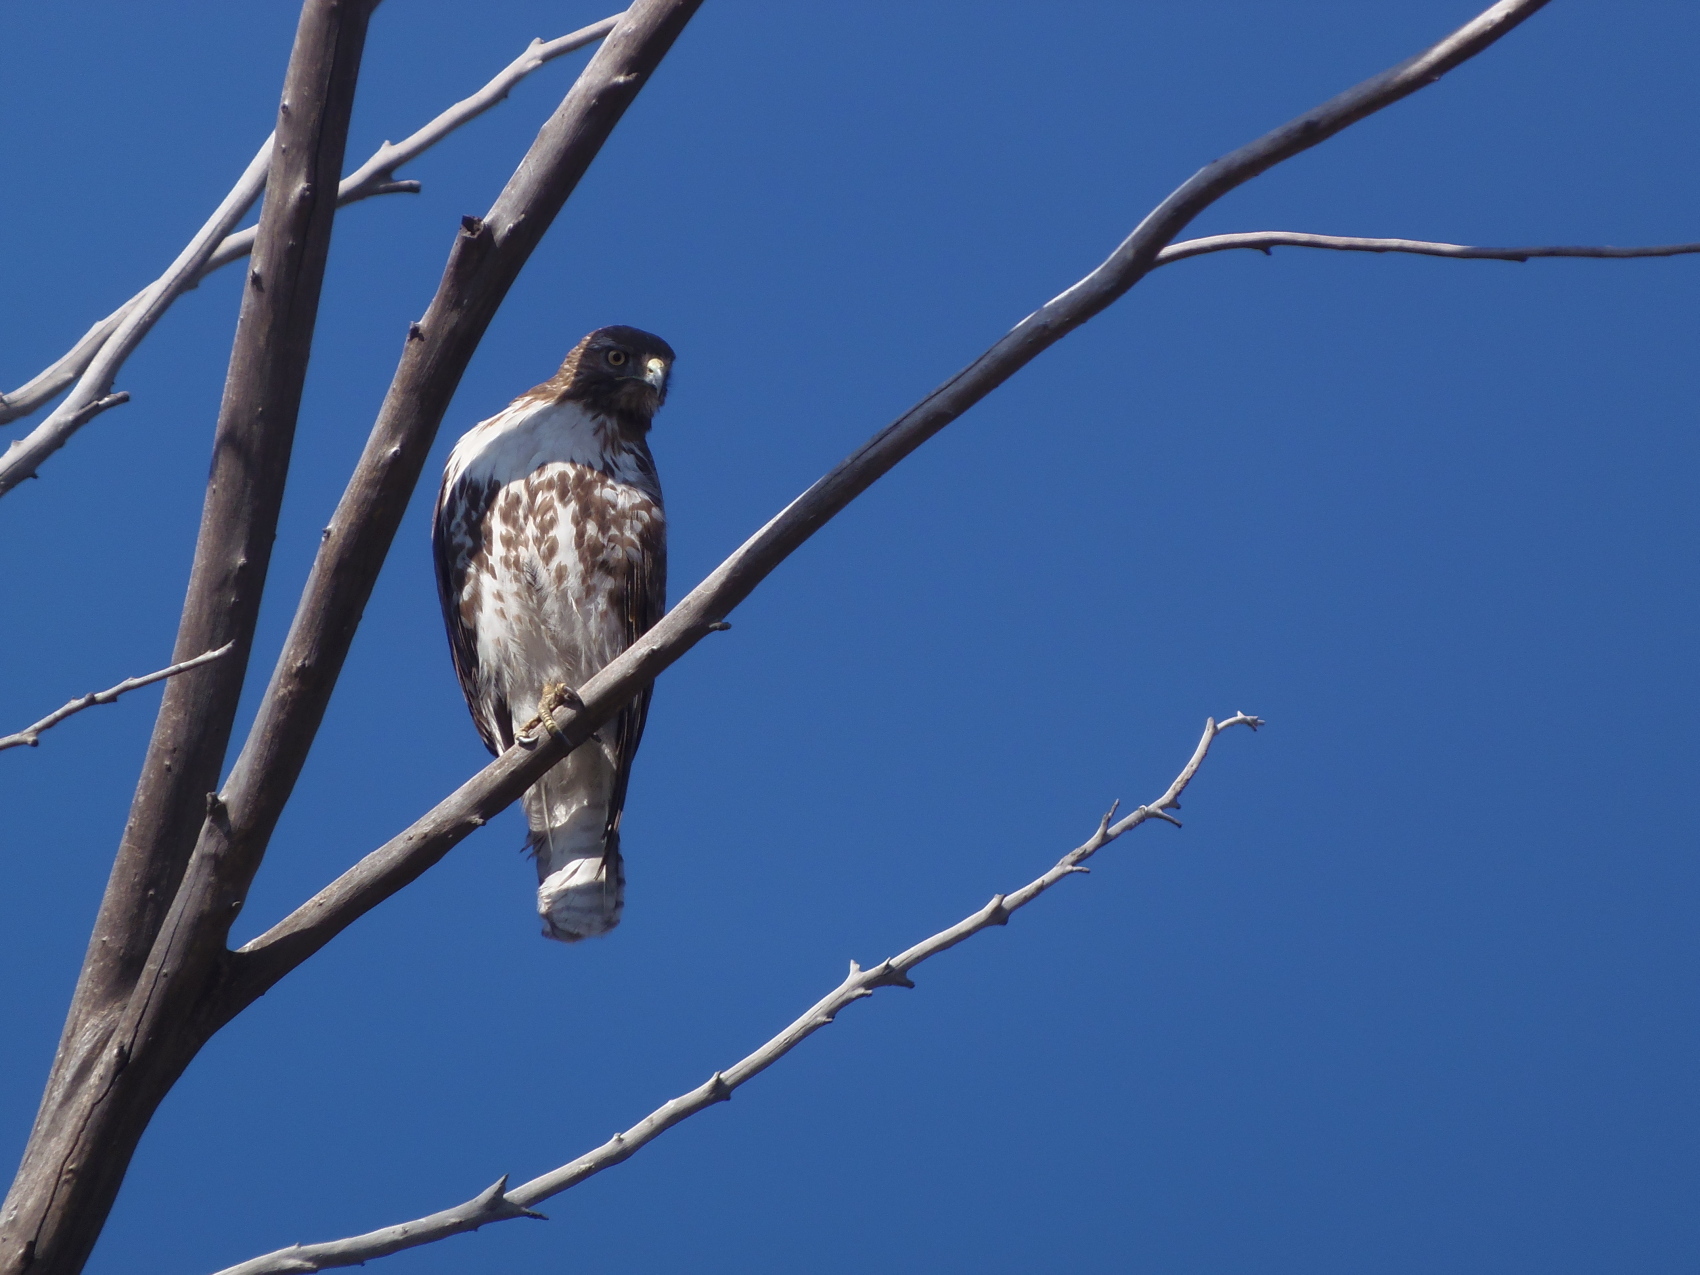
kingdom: Animalia
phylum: Chordata
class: Aves
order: Accipitriformes
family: Accipitridae
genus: Buteo
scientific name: Buteo jamaicensis
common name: Red-tailed hawk
